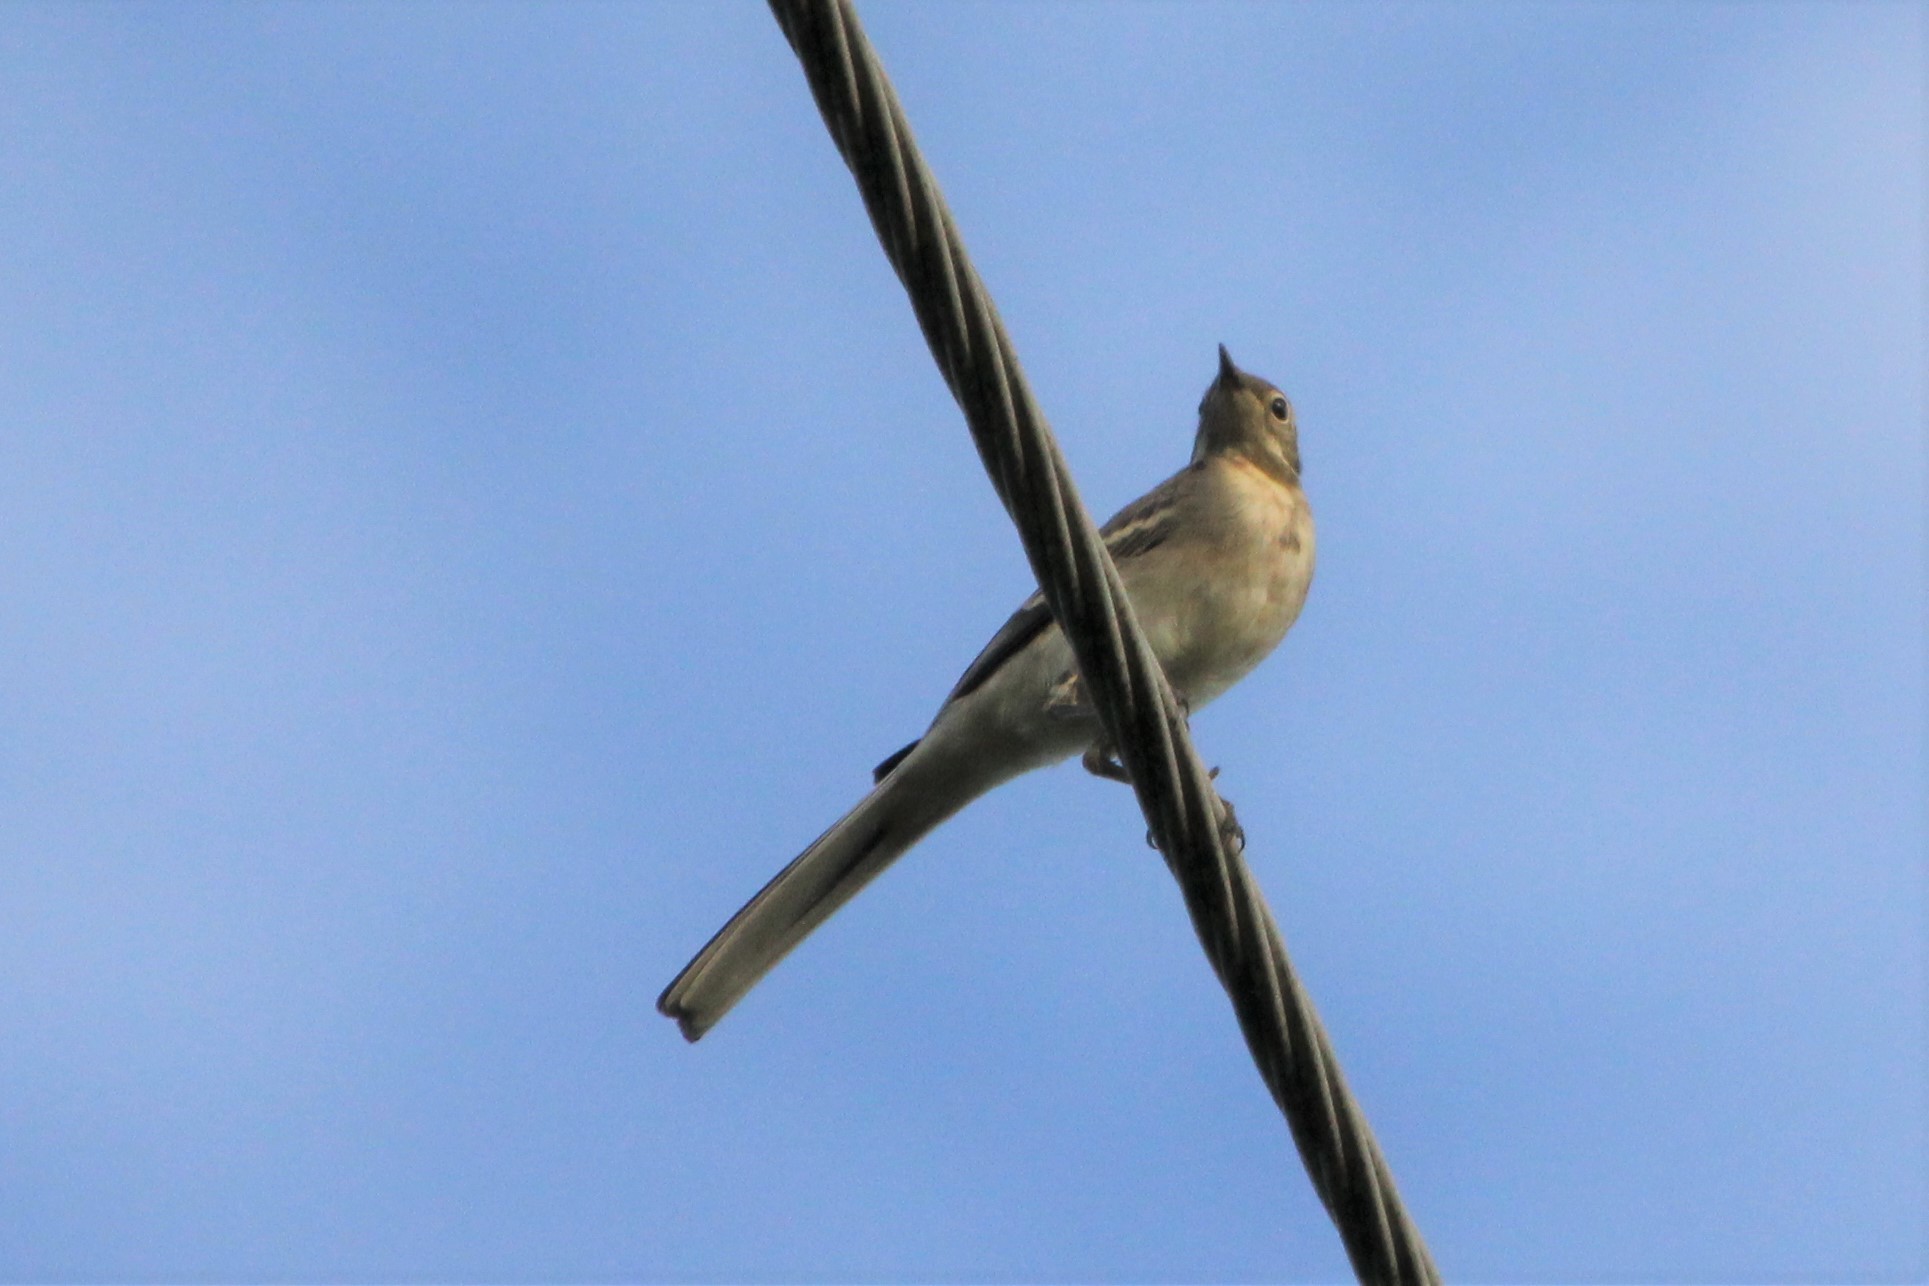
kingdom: Animalia
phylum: Chordata
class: Aves
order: Passeriformes
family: Motacillidae
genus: Motacilla
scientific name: Motacilla alba
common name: White wagtail
